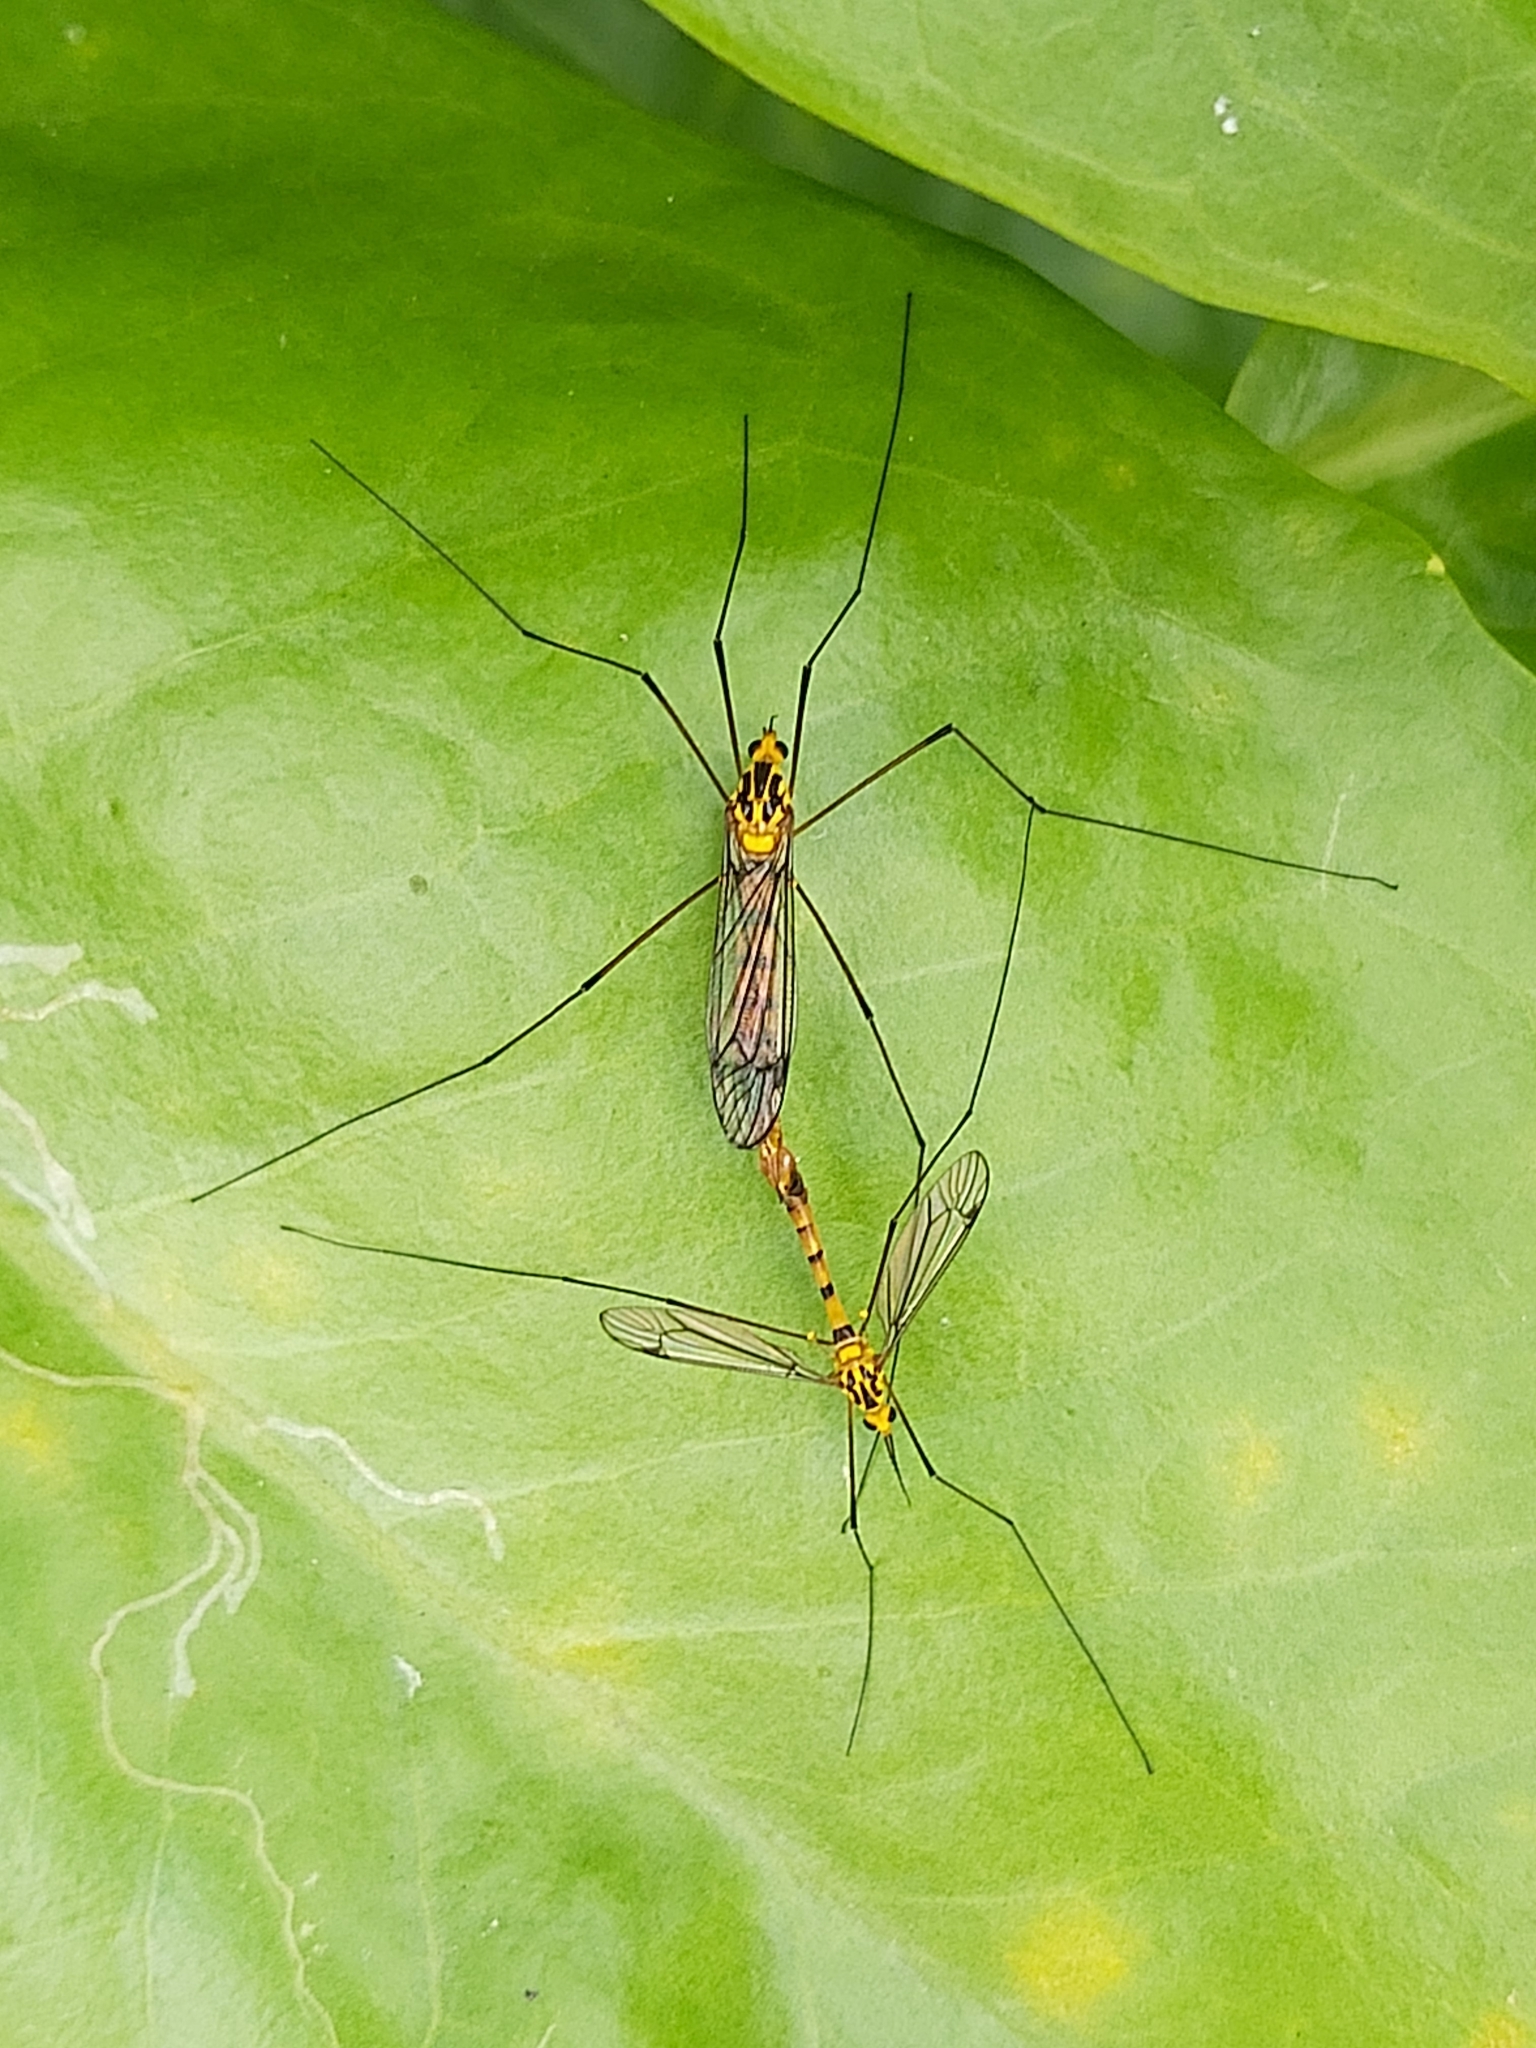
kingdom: Animalia
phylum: Arthropoda
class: Insecta
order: Diptera
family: Tipulidae
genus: Nephrotoma
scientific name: Nephrotoma australasiae
